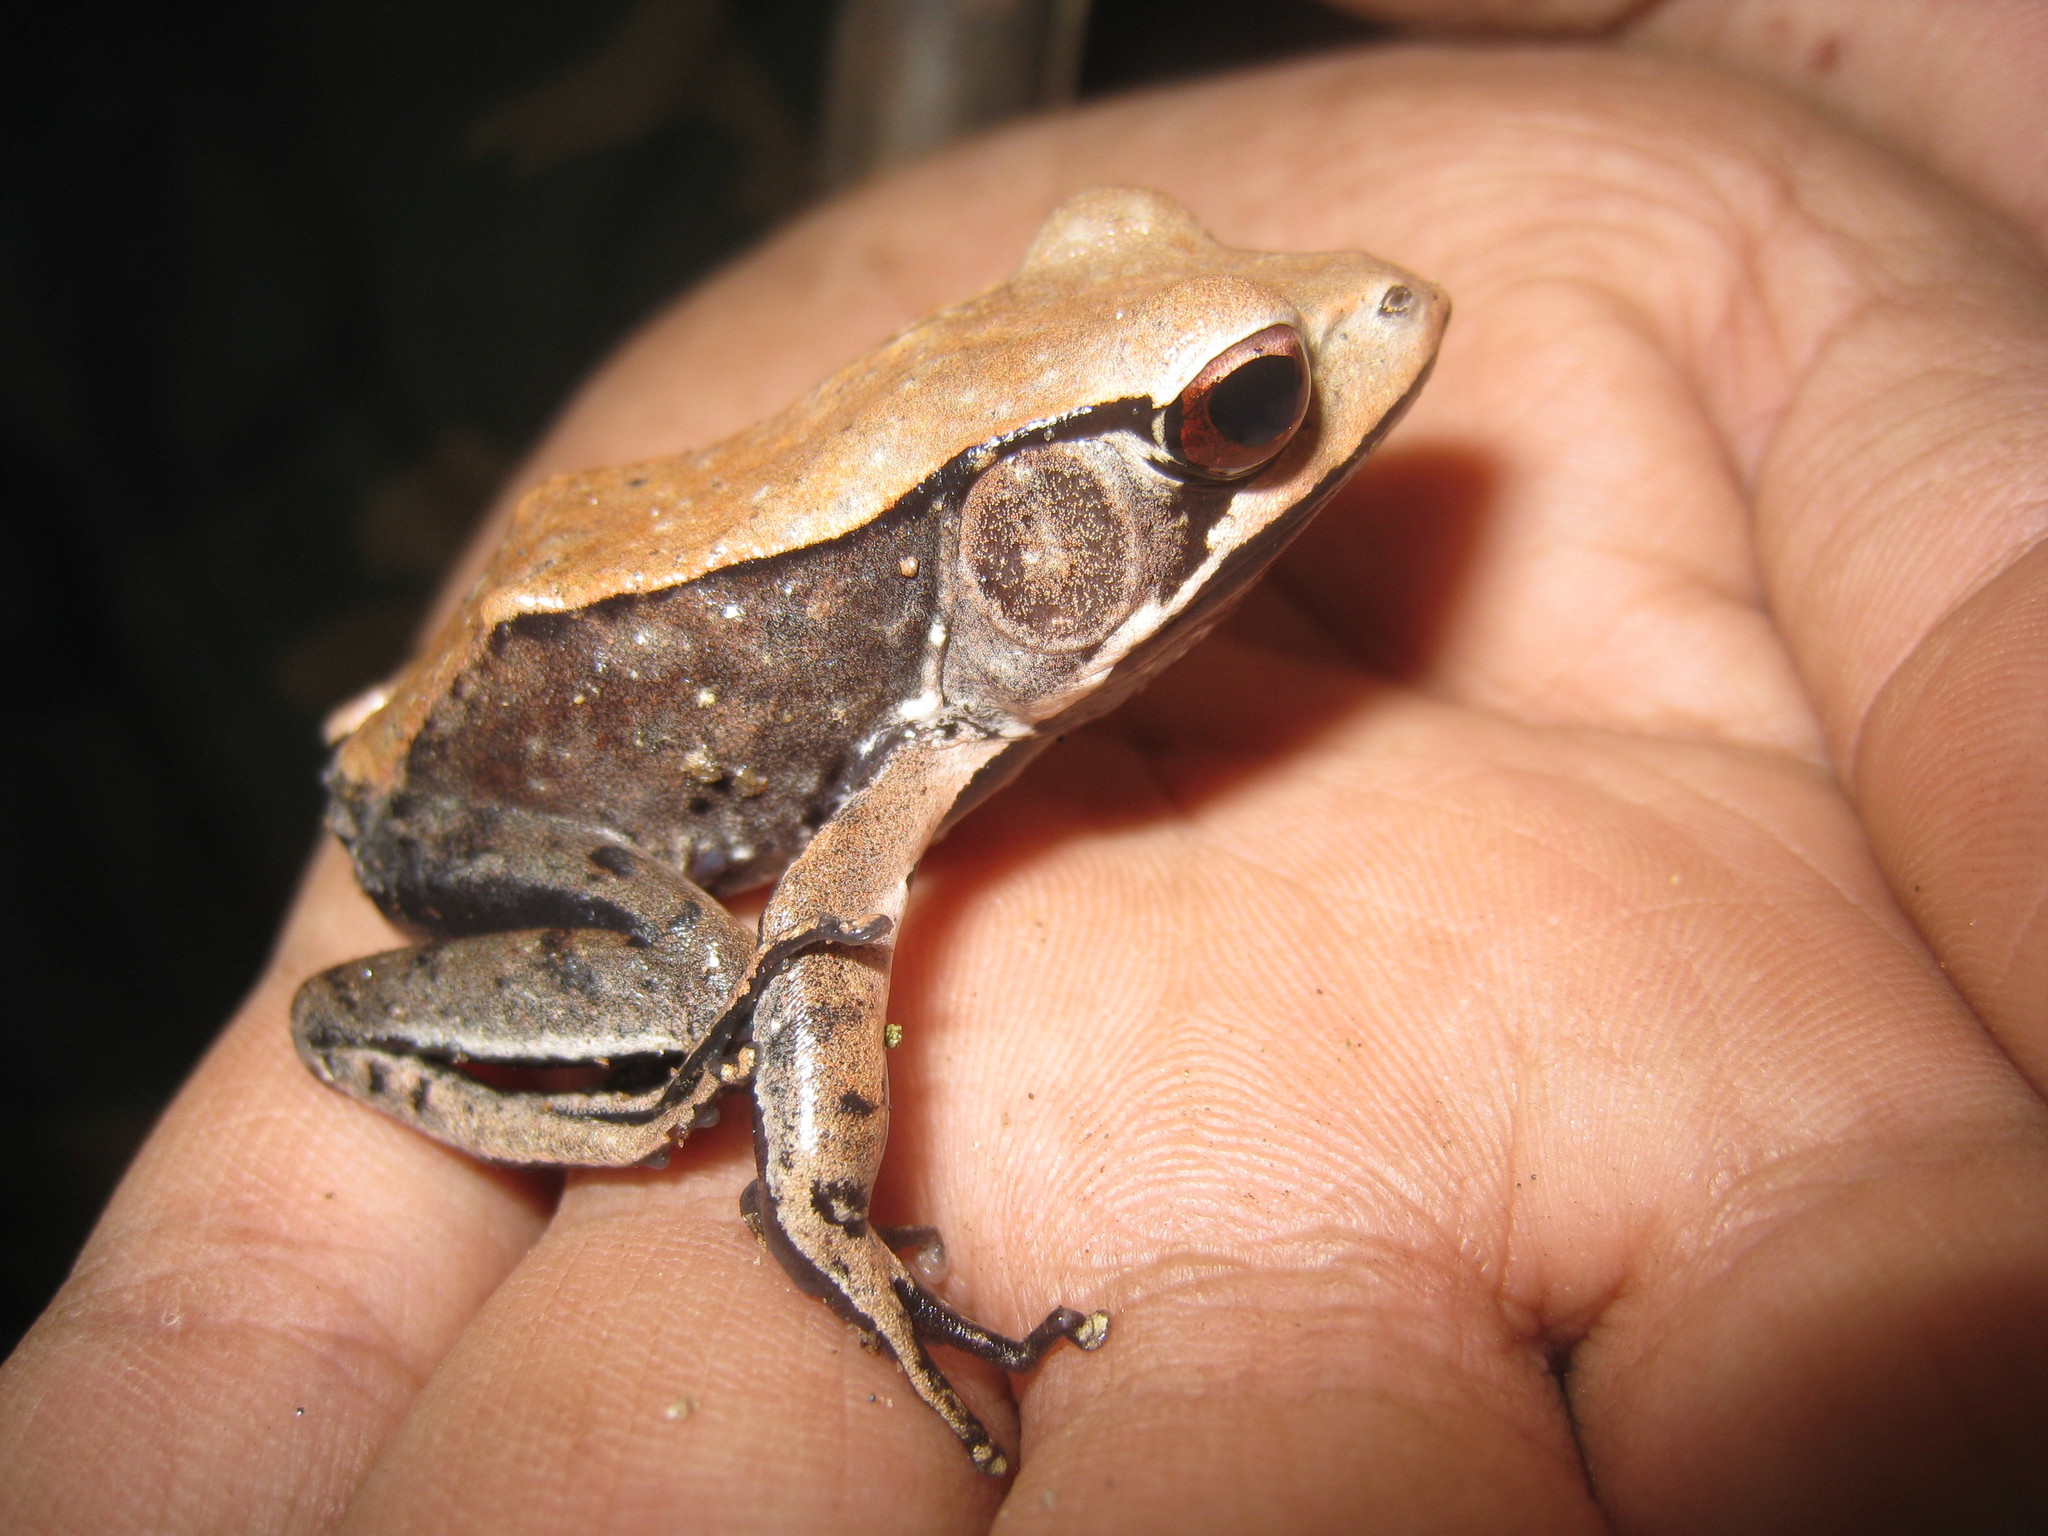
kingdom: Animalia
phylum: Chordata
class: Amphibia
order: Anura
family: Ranidae
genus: Clinotarsus
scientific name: Clinotarsus curtipes
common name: Bicoloured frog
